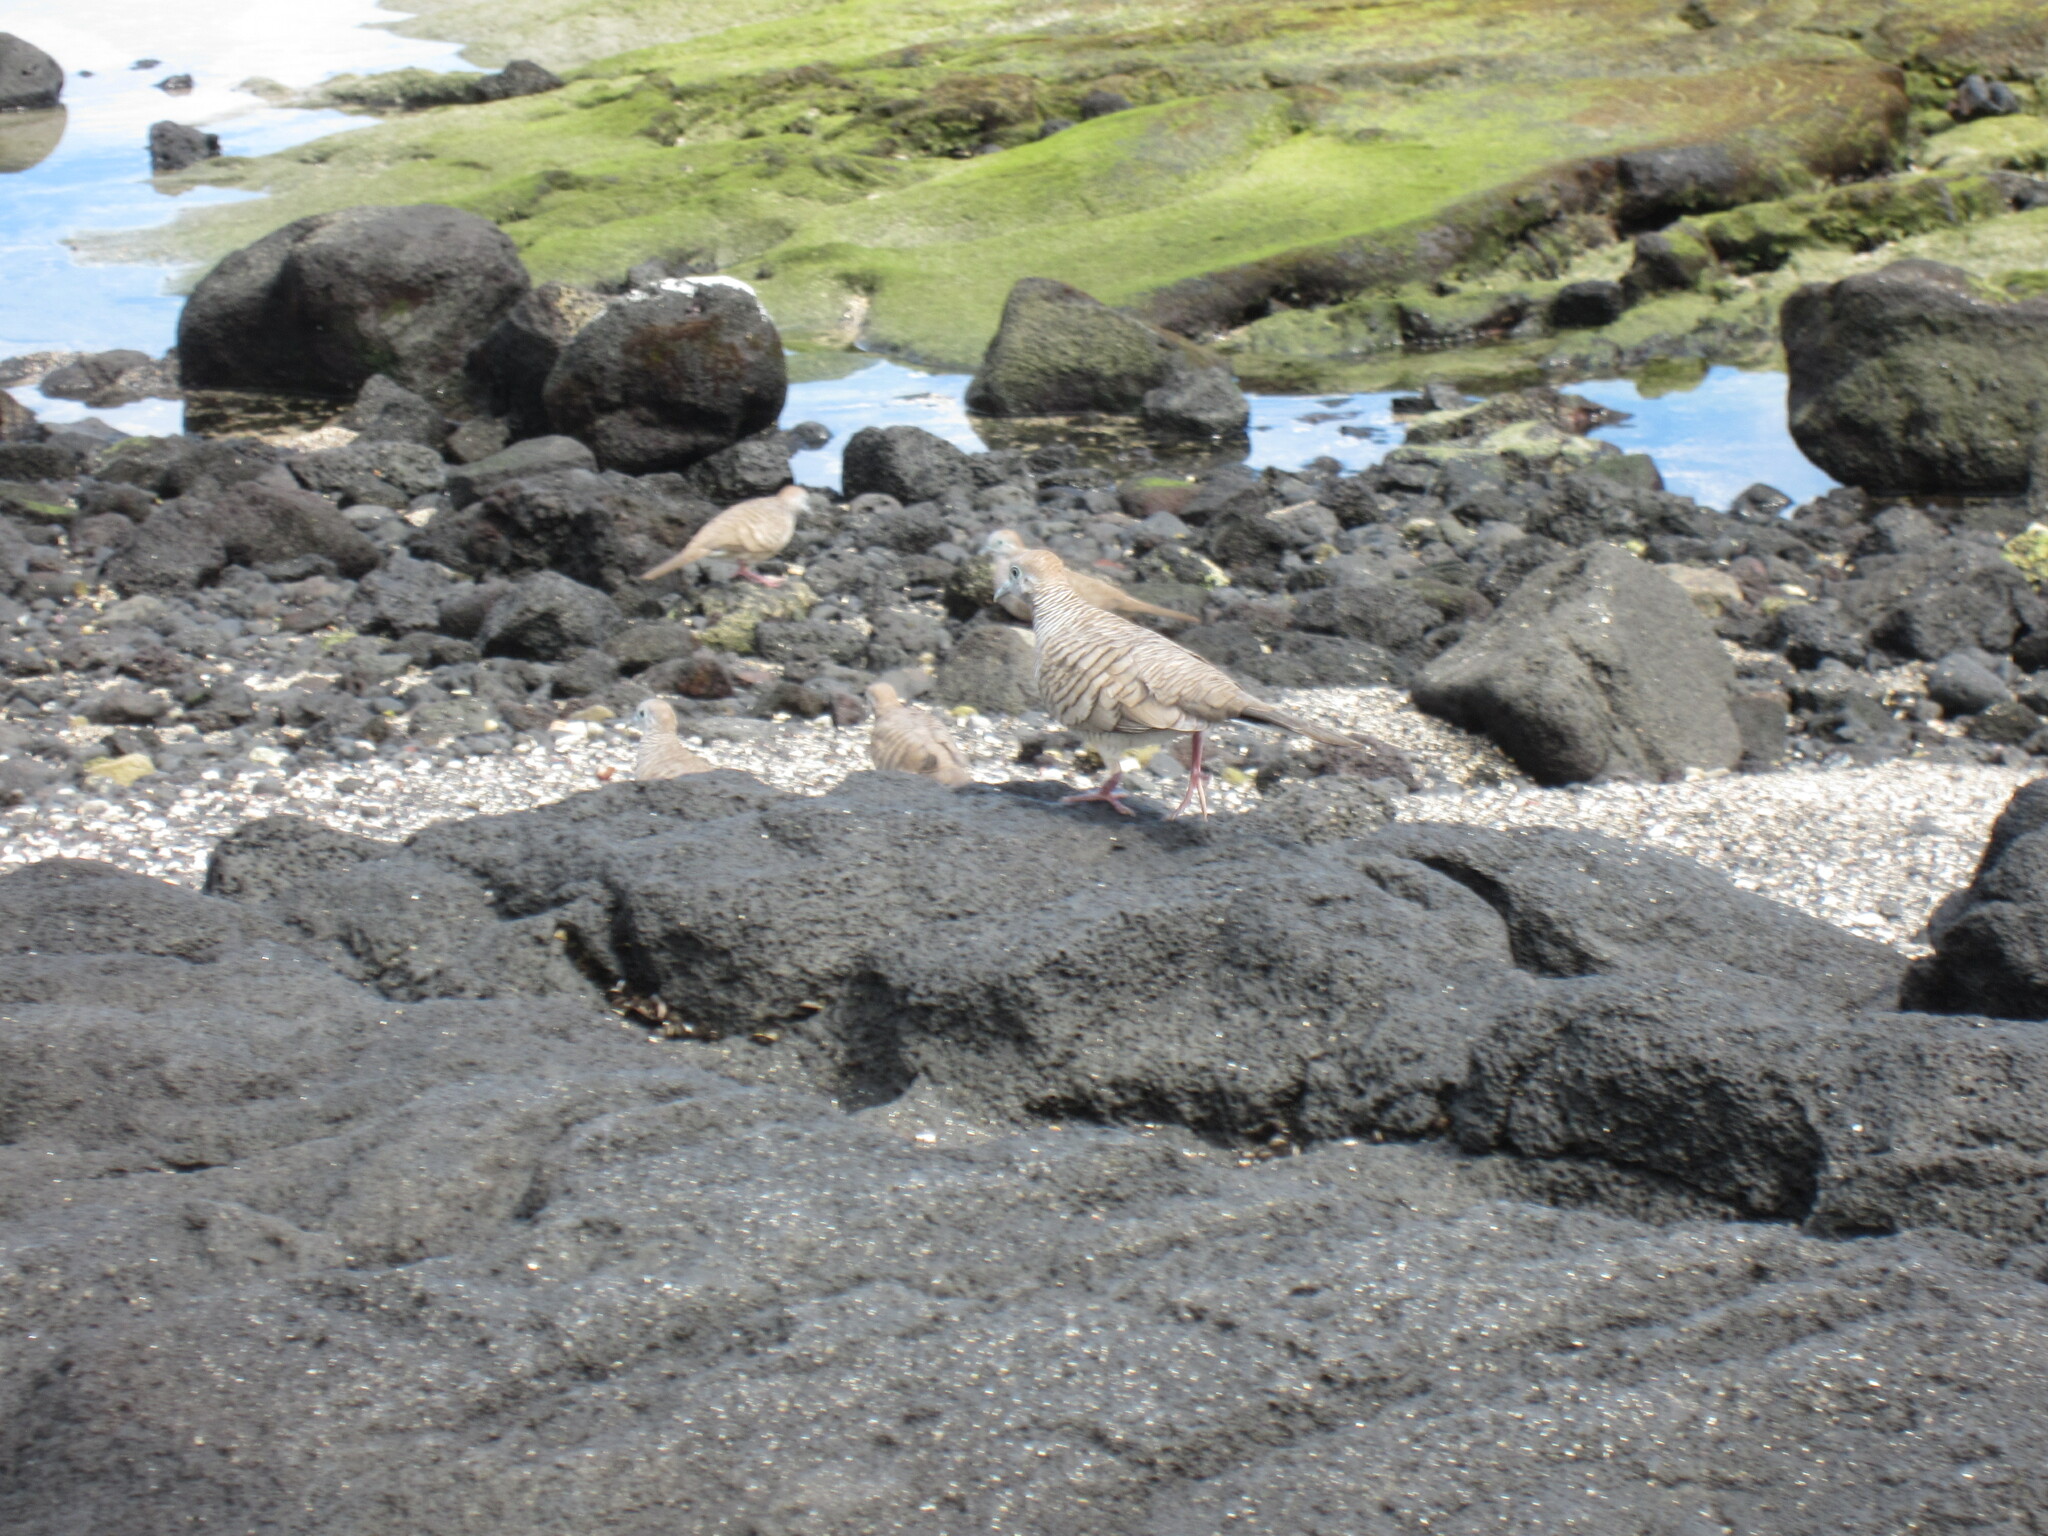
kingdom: Animalia
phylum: Chordata
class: Aves
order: Columbiformes
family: Columbidae
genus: Geopelia
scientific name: Geopelia striata
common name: Zebra dove
